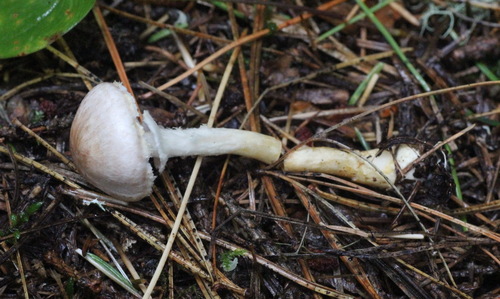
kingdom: Fungi
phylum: Basidiomycota
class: Agaricomycetes
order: Agaricales
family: Agaricaceae
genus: Agaricus
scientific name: Agaricus semotus
